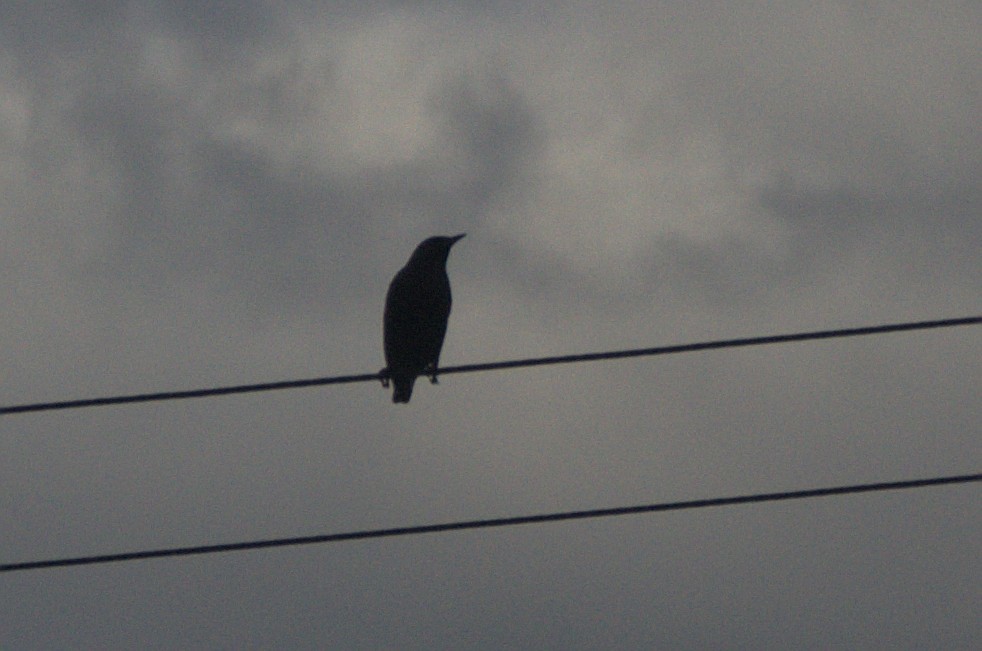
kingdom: Animalia
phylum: Chordata
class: Aves
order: Passeriformes
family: Sturnidae
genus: Sturnus
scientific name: Sturnus vulgaris
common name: Common starling
